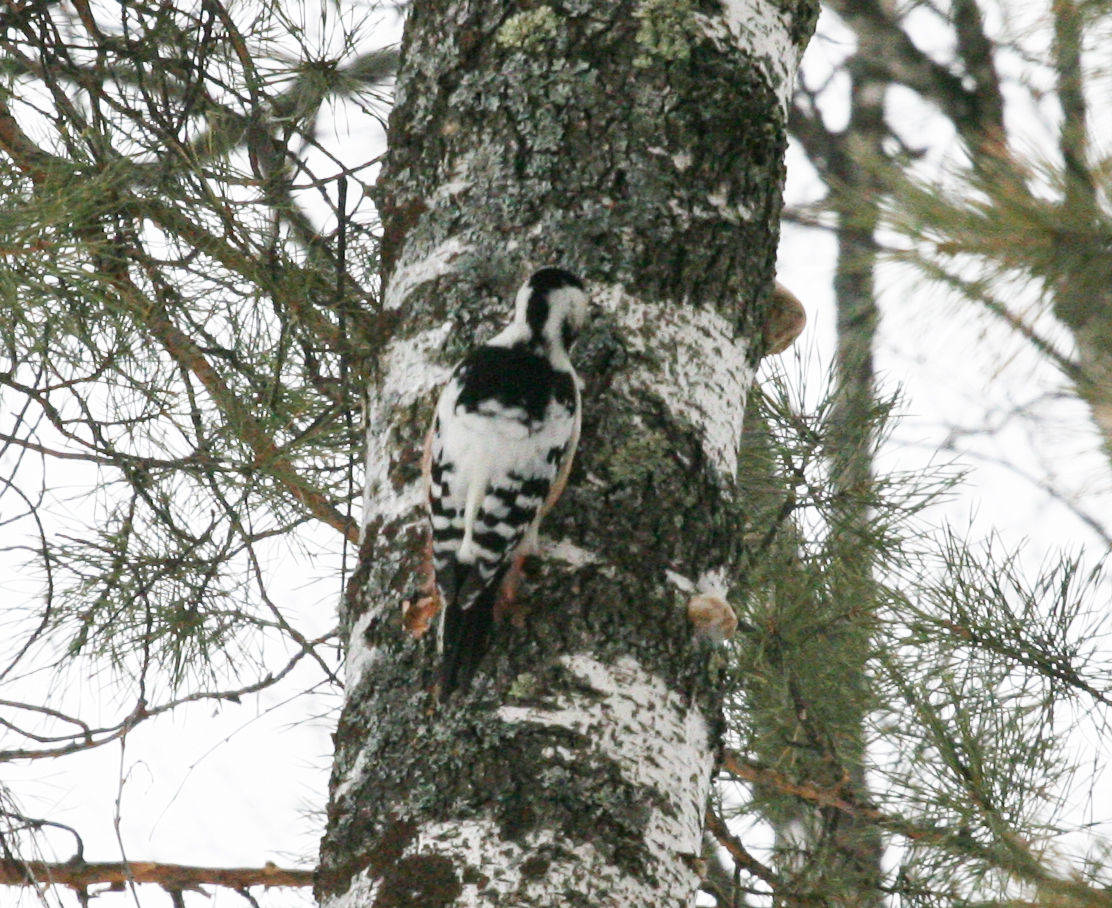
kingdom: Animalia
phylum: Chordata
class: Aves
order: Piciformes
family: Picidae
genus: Dendrocopos
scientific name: Dendrocopos leucotos
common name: White-backed woodpecker
